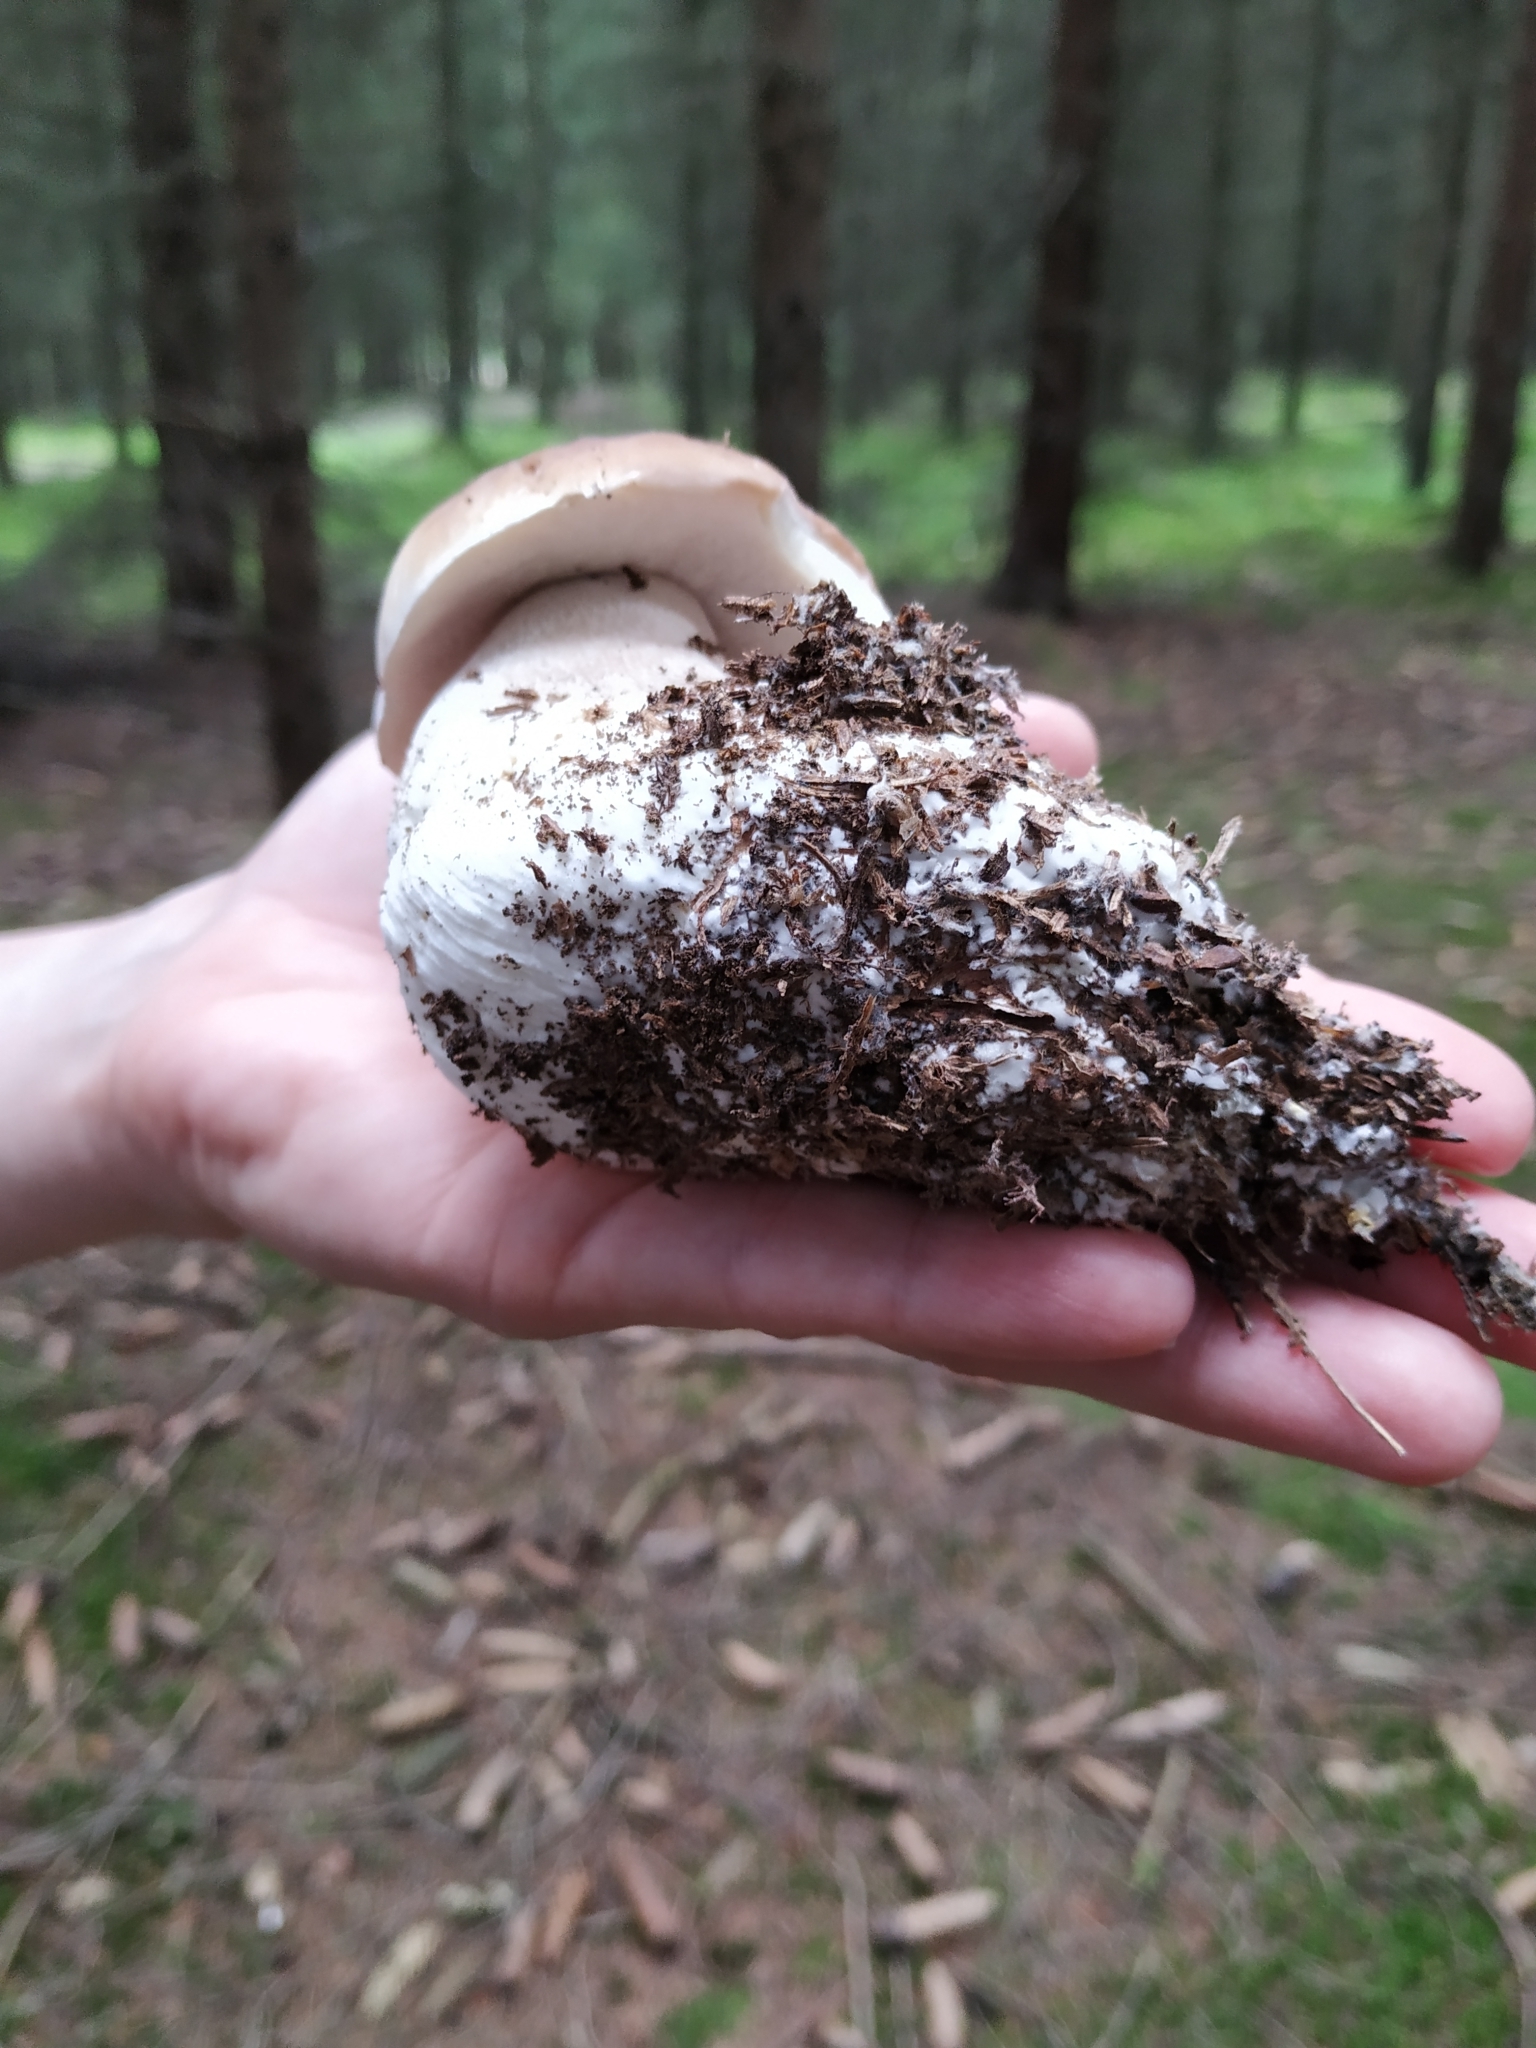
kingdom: Fungi
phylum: Basidiomycota
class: Agaricomycetes
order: Boletales
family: Boletaceae
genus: Boletus
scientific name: Boletus edulis
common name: Cep
